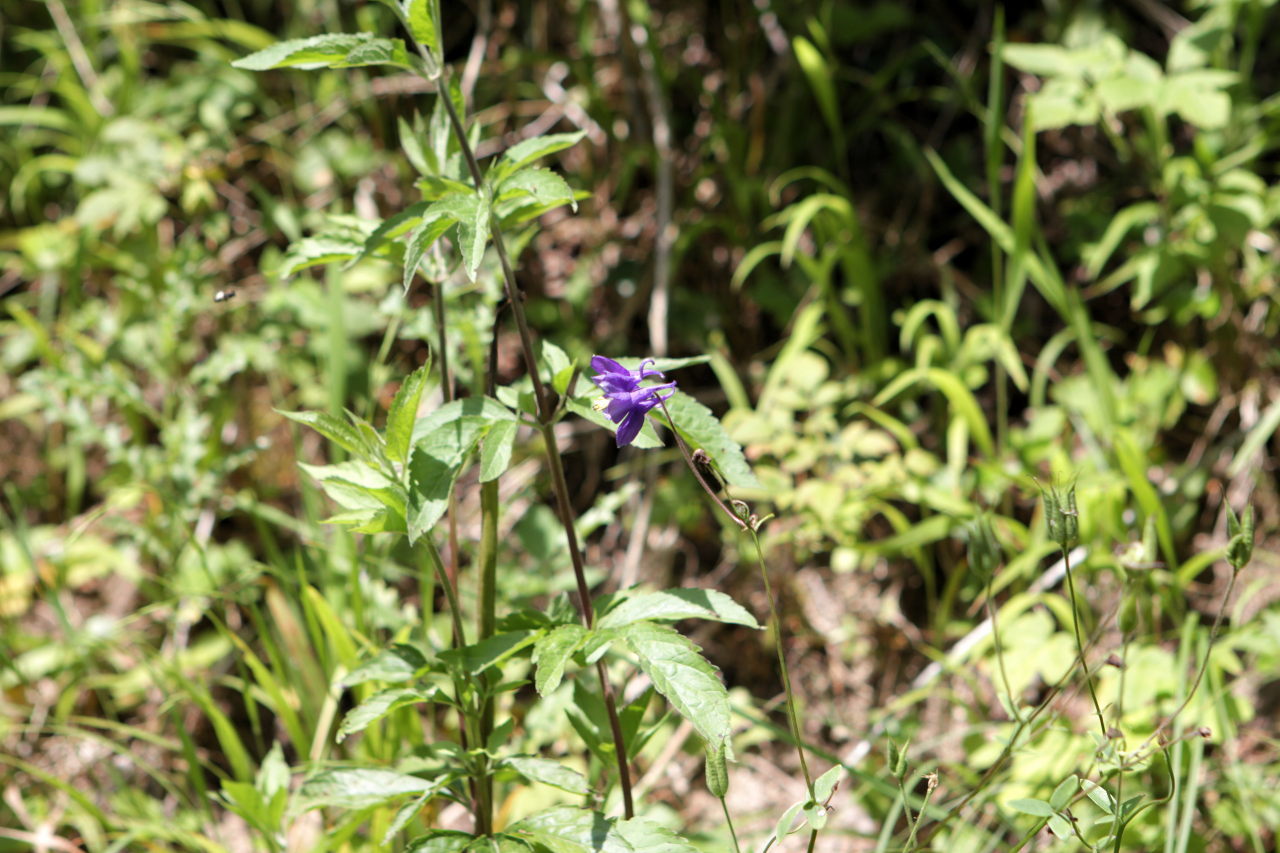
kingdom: Plantae
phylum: Tracheophyta
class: Magnoliopsida
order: Ranunculales
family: Ranunculaceae
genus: Aquilegia
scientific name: Aquilegia vulgaris
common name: Columbine
